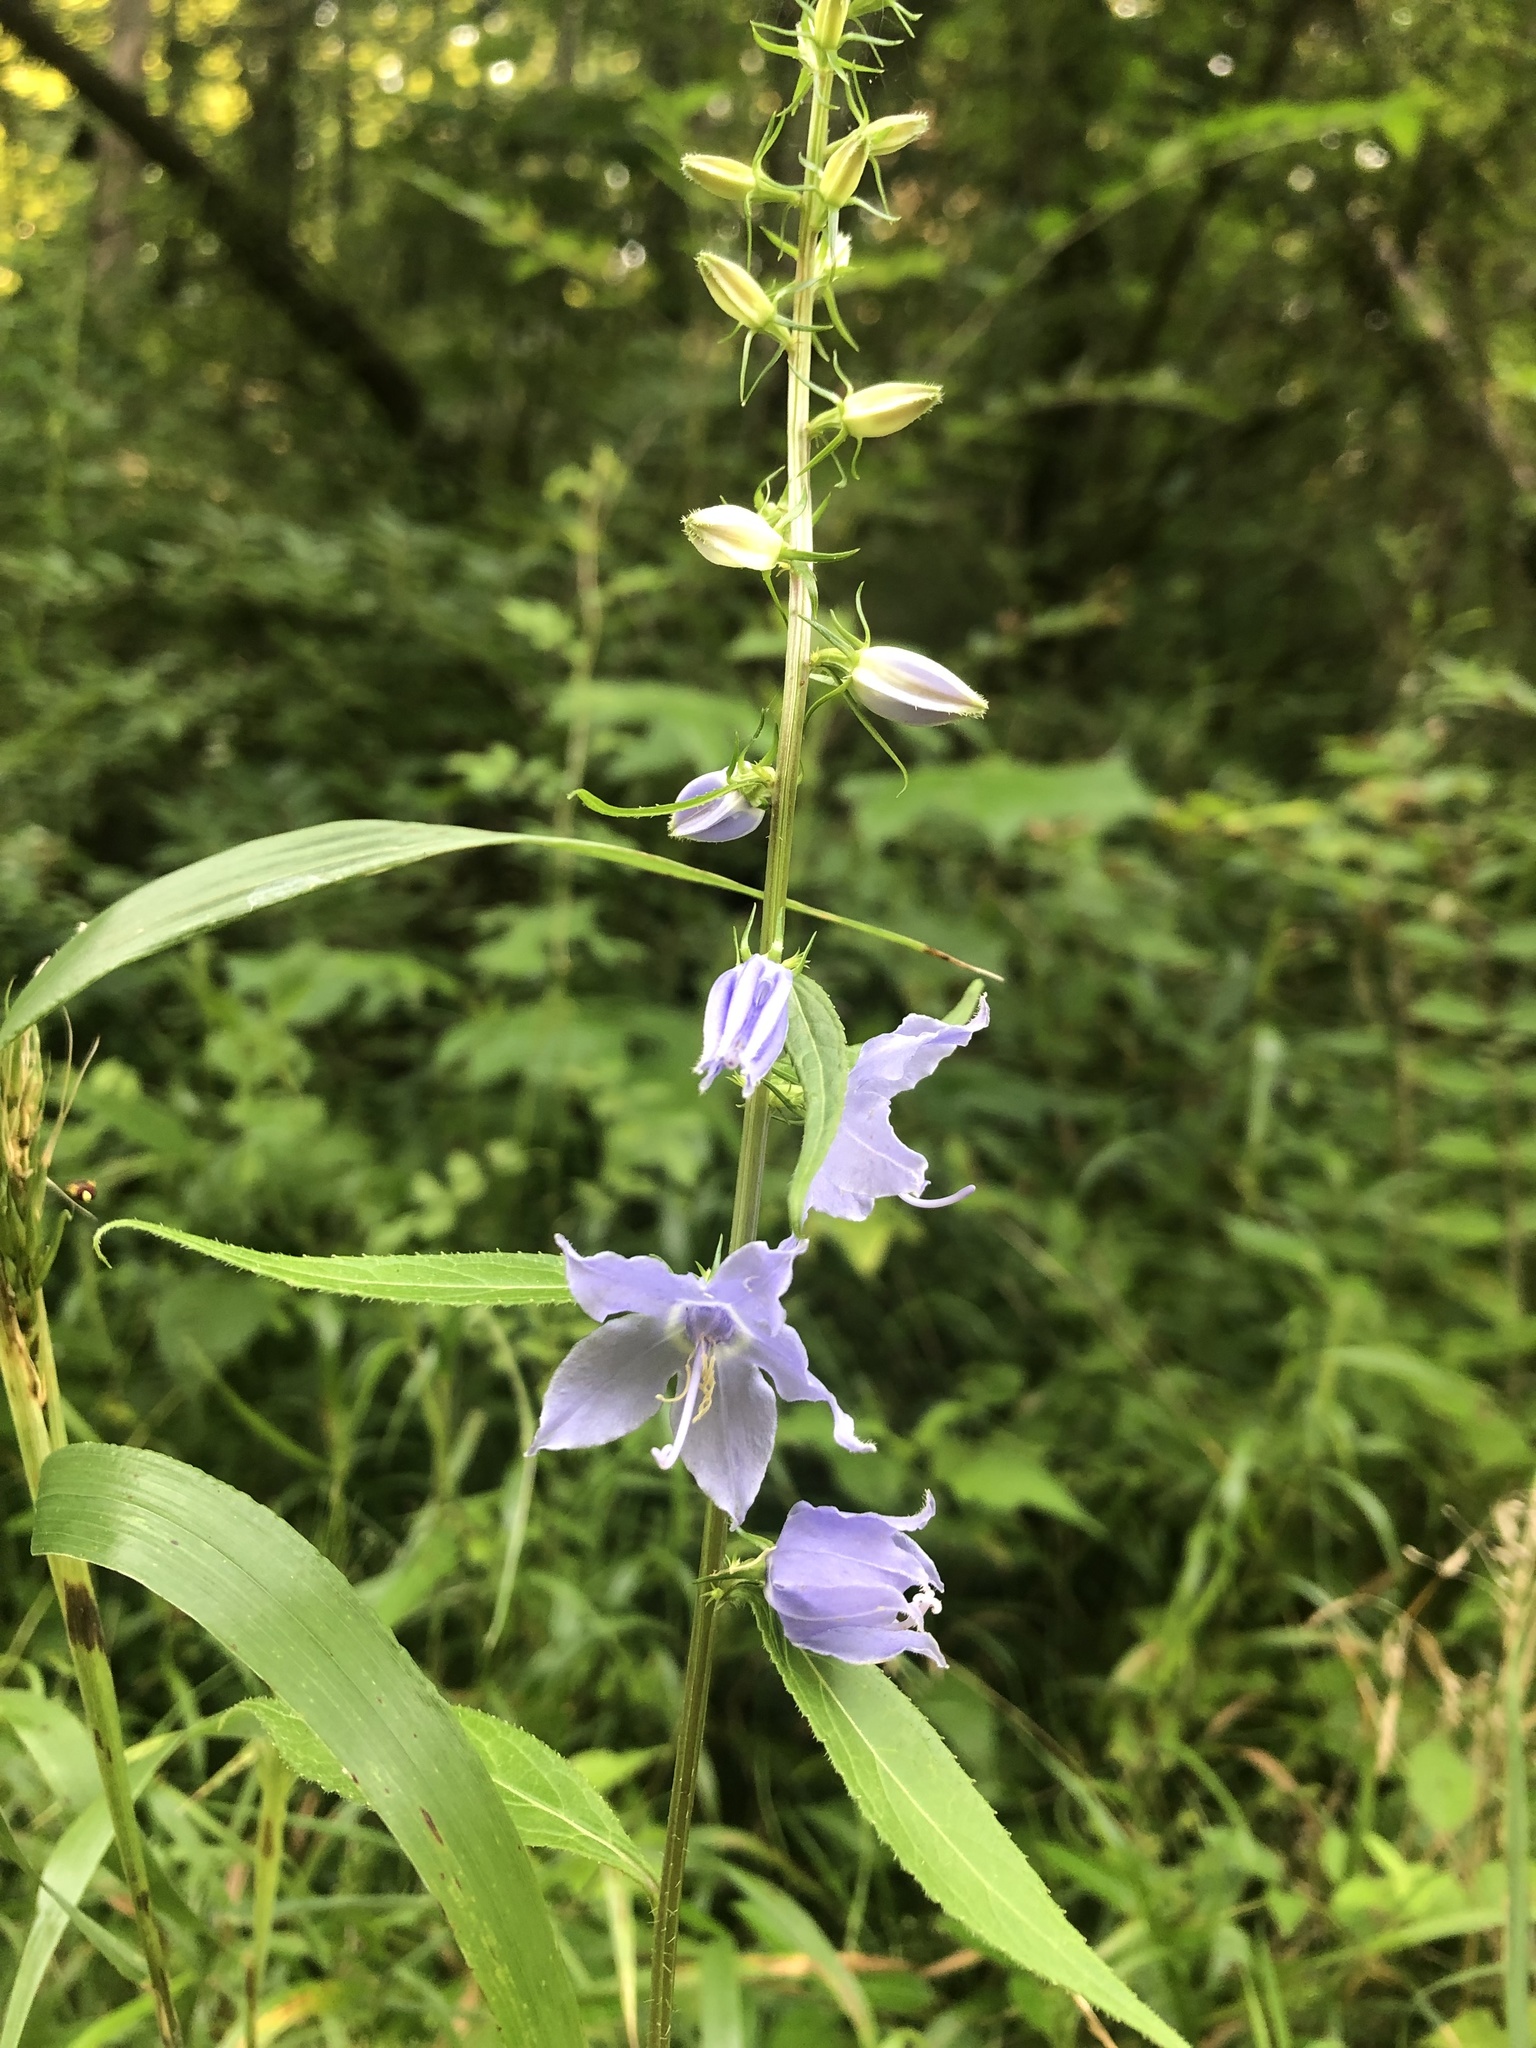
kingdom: Plantae
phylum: Tracheophyta
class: Magnoliopsida
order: Asterales
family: Campanulaceae
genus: Campanulastrum
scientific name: Campanulastrum americanum
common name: American bellflower
